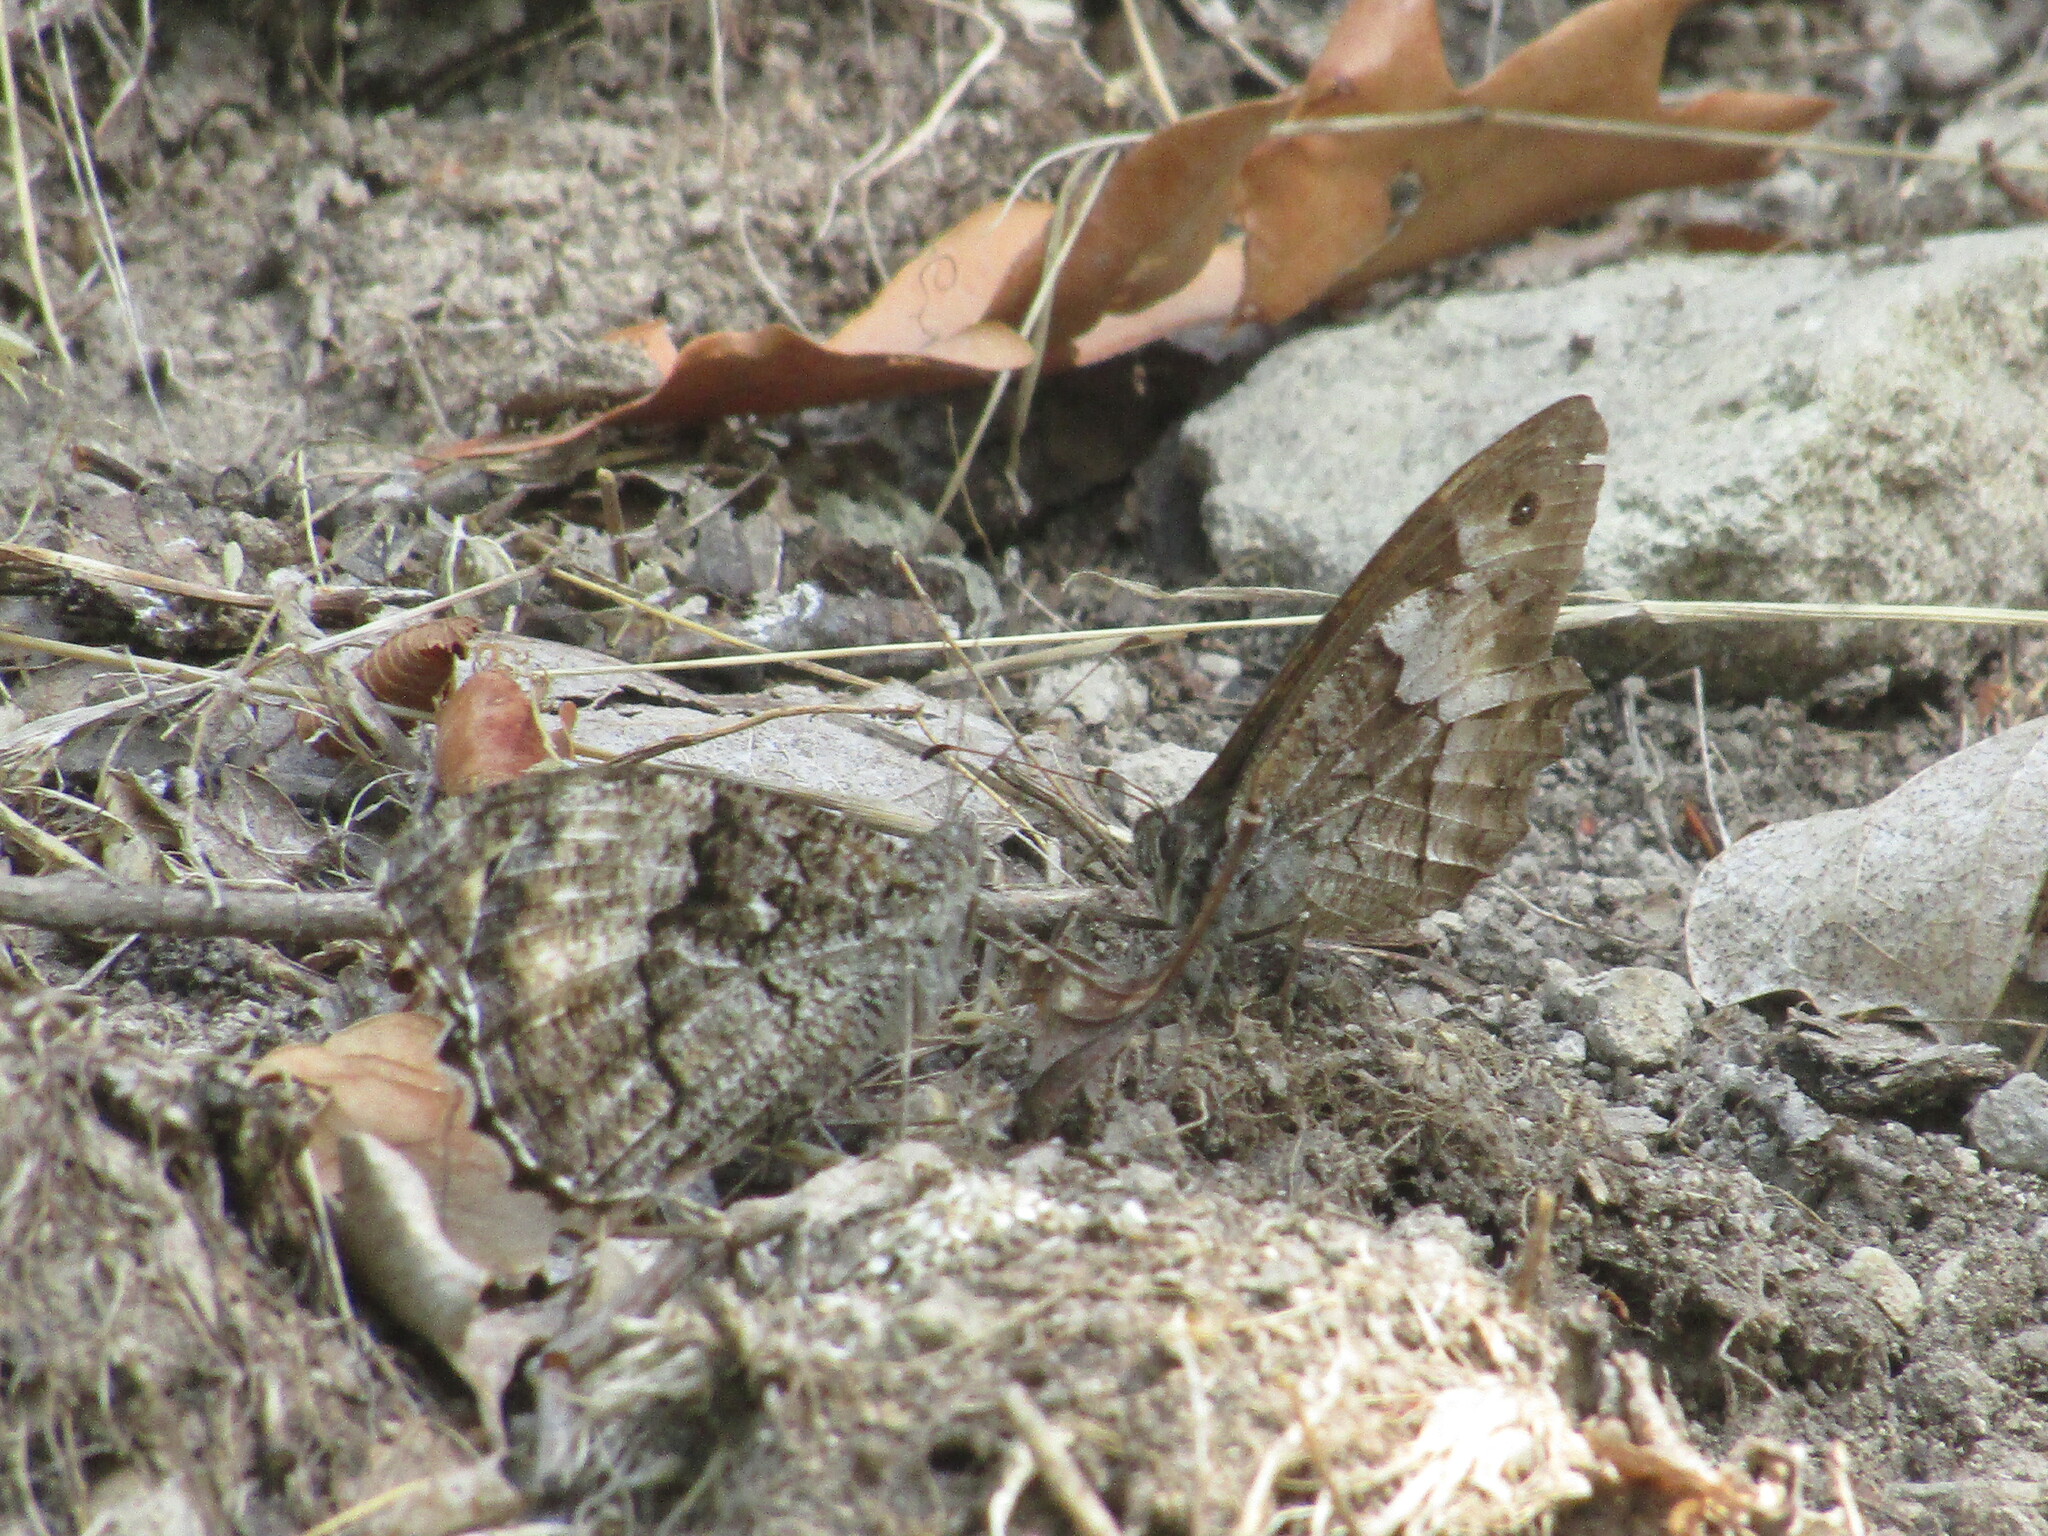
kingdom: Animalia
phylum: Arthropoda
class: Insecta
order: Lepidoptera
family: Nymphalidae
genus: Hipparchia
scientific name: Hipparchia
